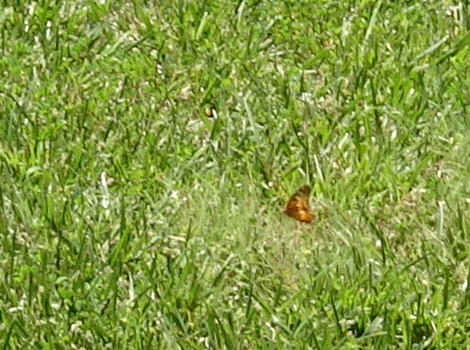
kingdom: Animalia
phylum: Arthropoda
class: Insecta
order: Lepidoptera
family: Nymphalidae
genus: Euptoieta
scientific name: Euptoieta claudia
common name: Variegated fritillary
